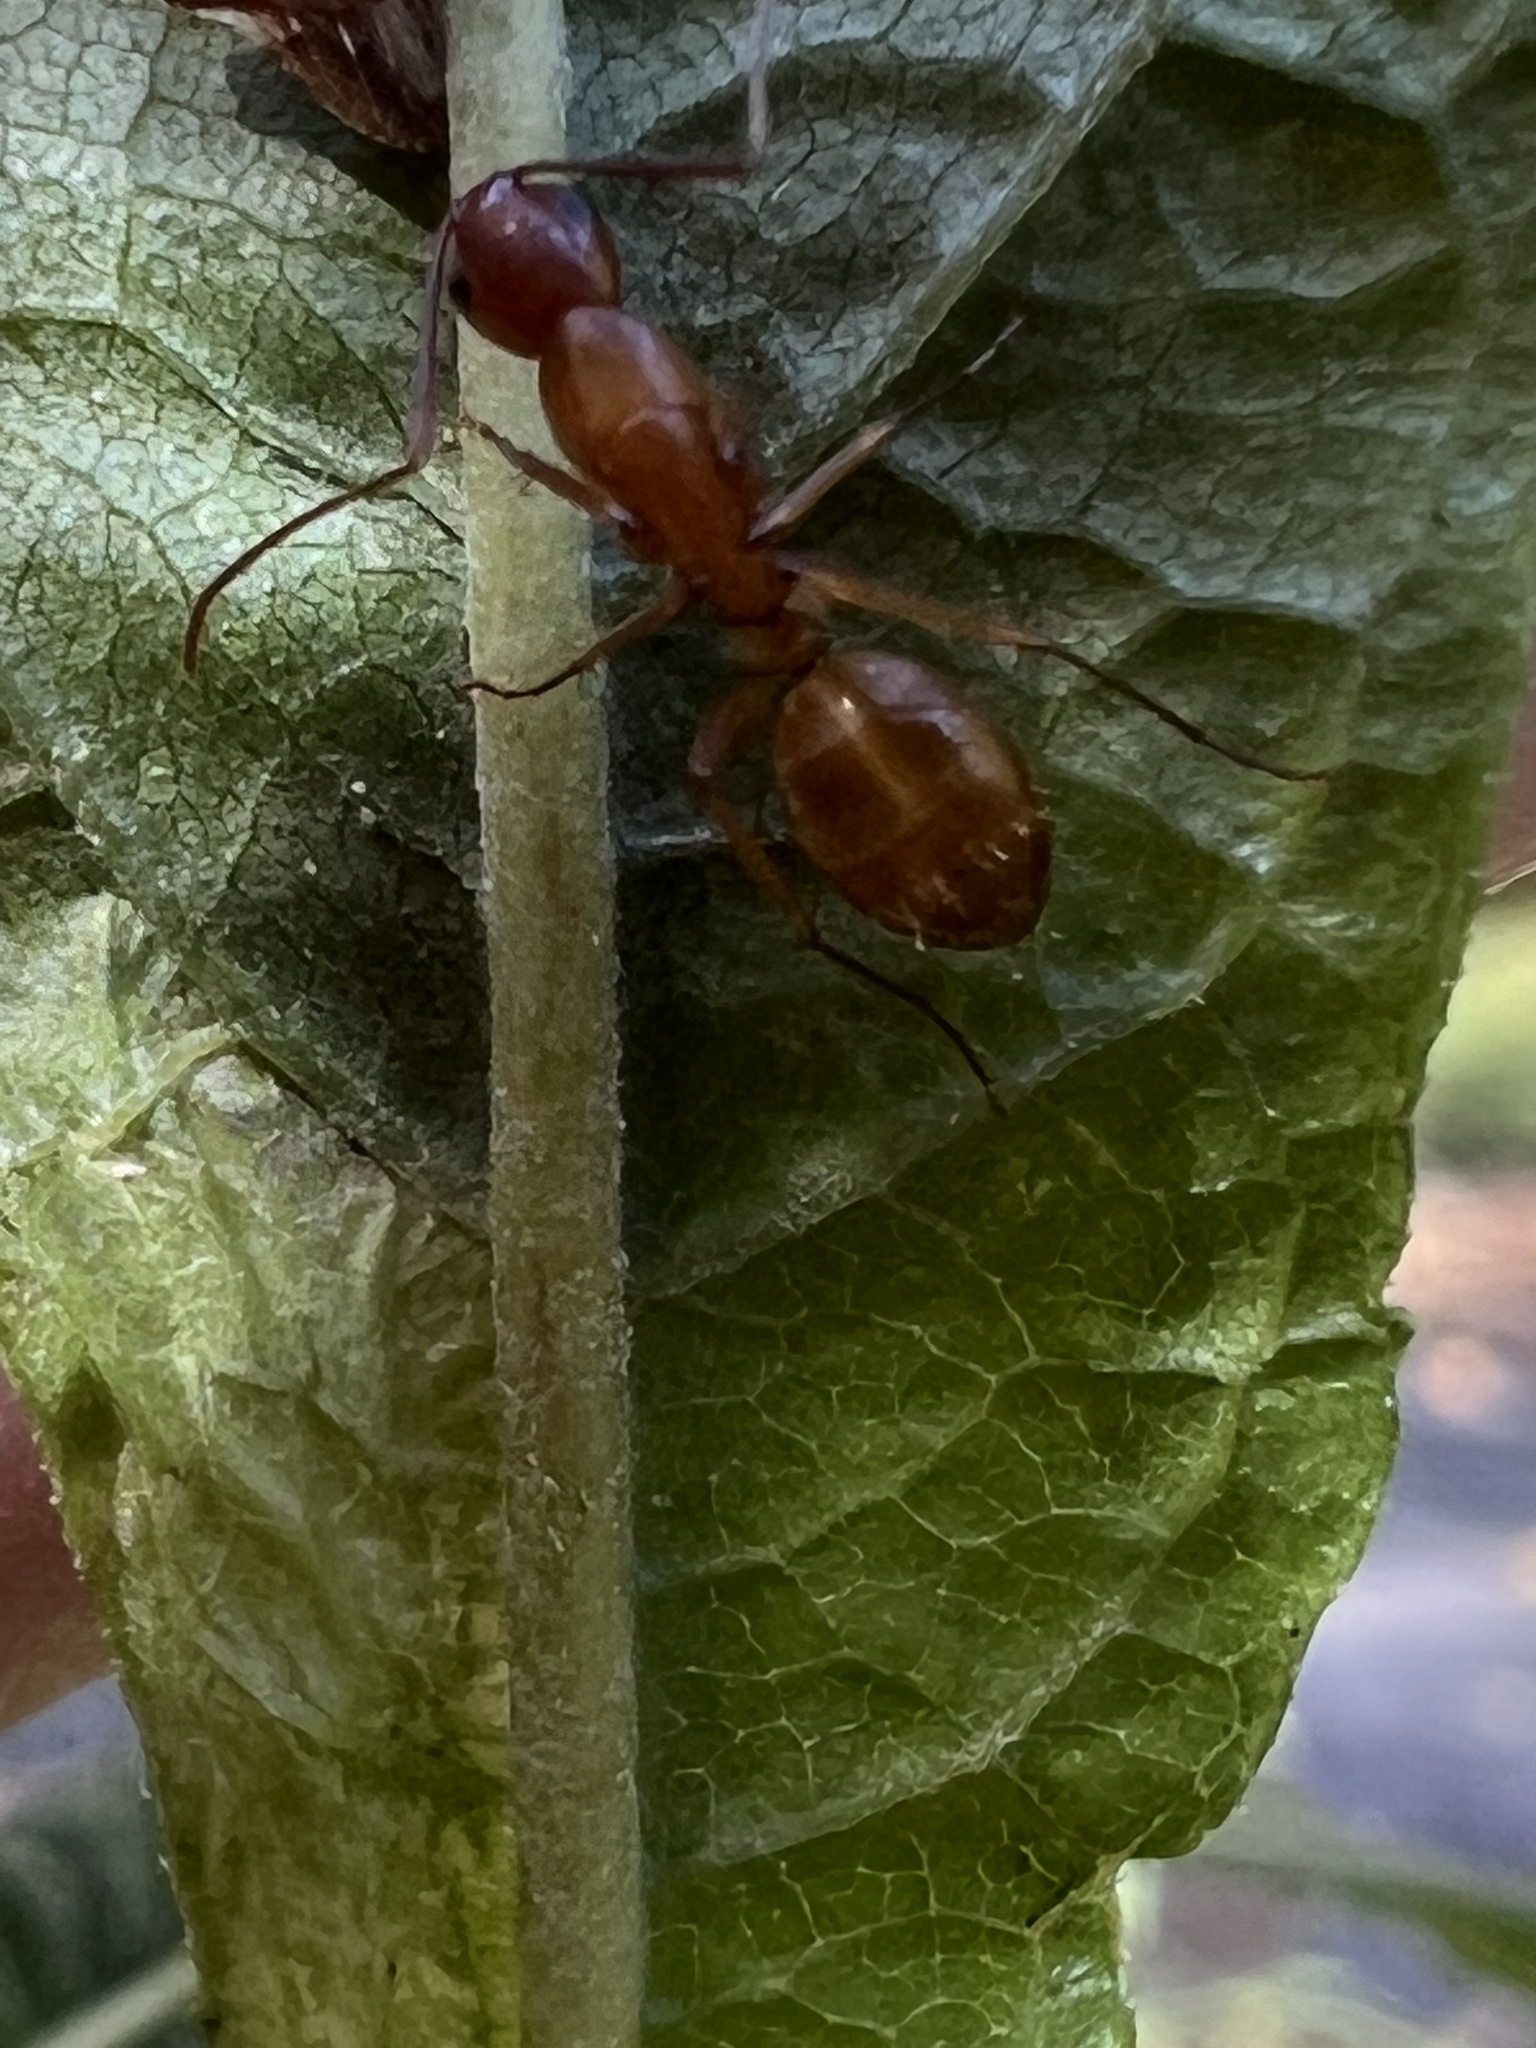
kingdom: Animalia
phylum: Arthropoda
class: Insecta
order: Hymenoptera
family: Formicidae
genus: Camponotus
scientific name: Camponotus castaneus
